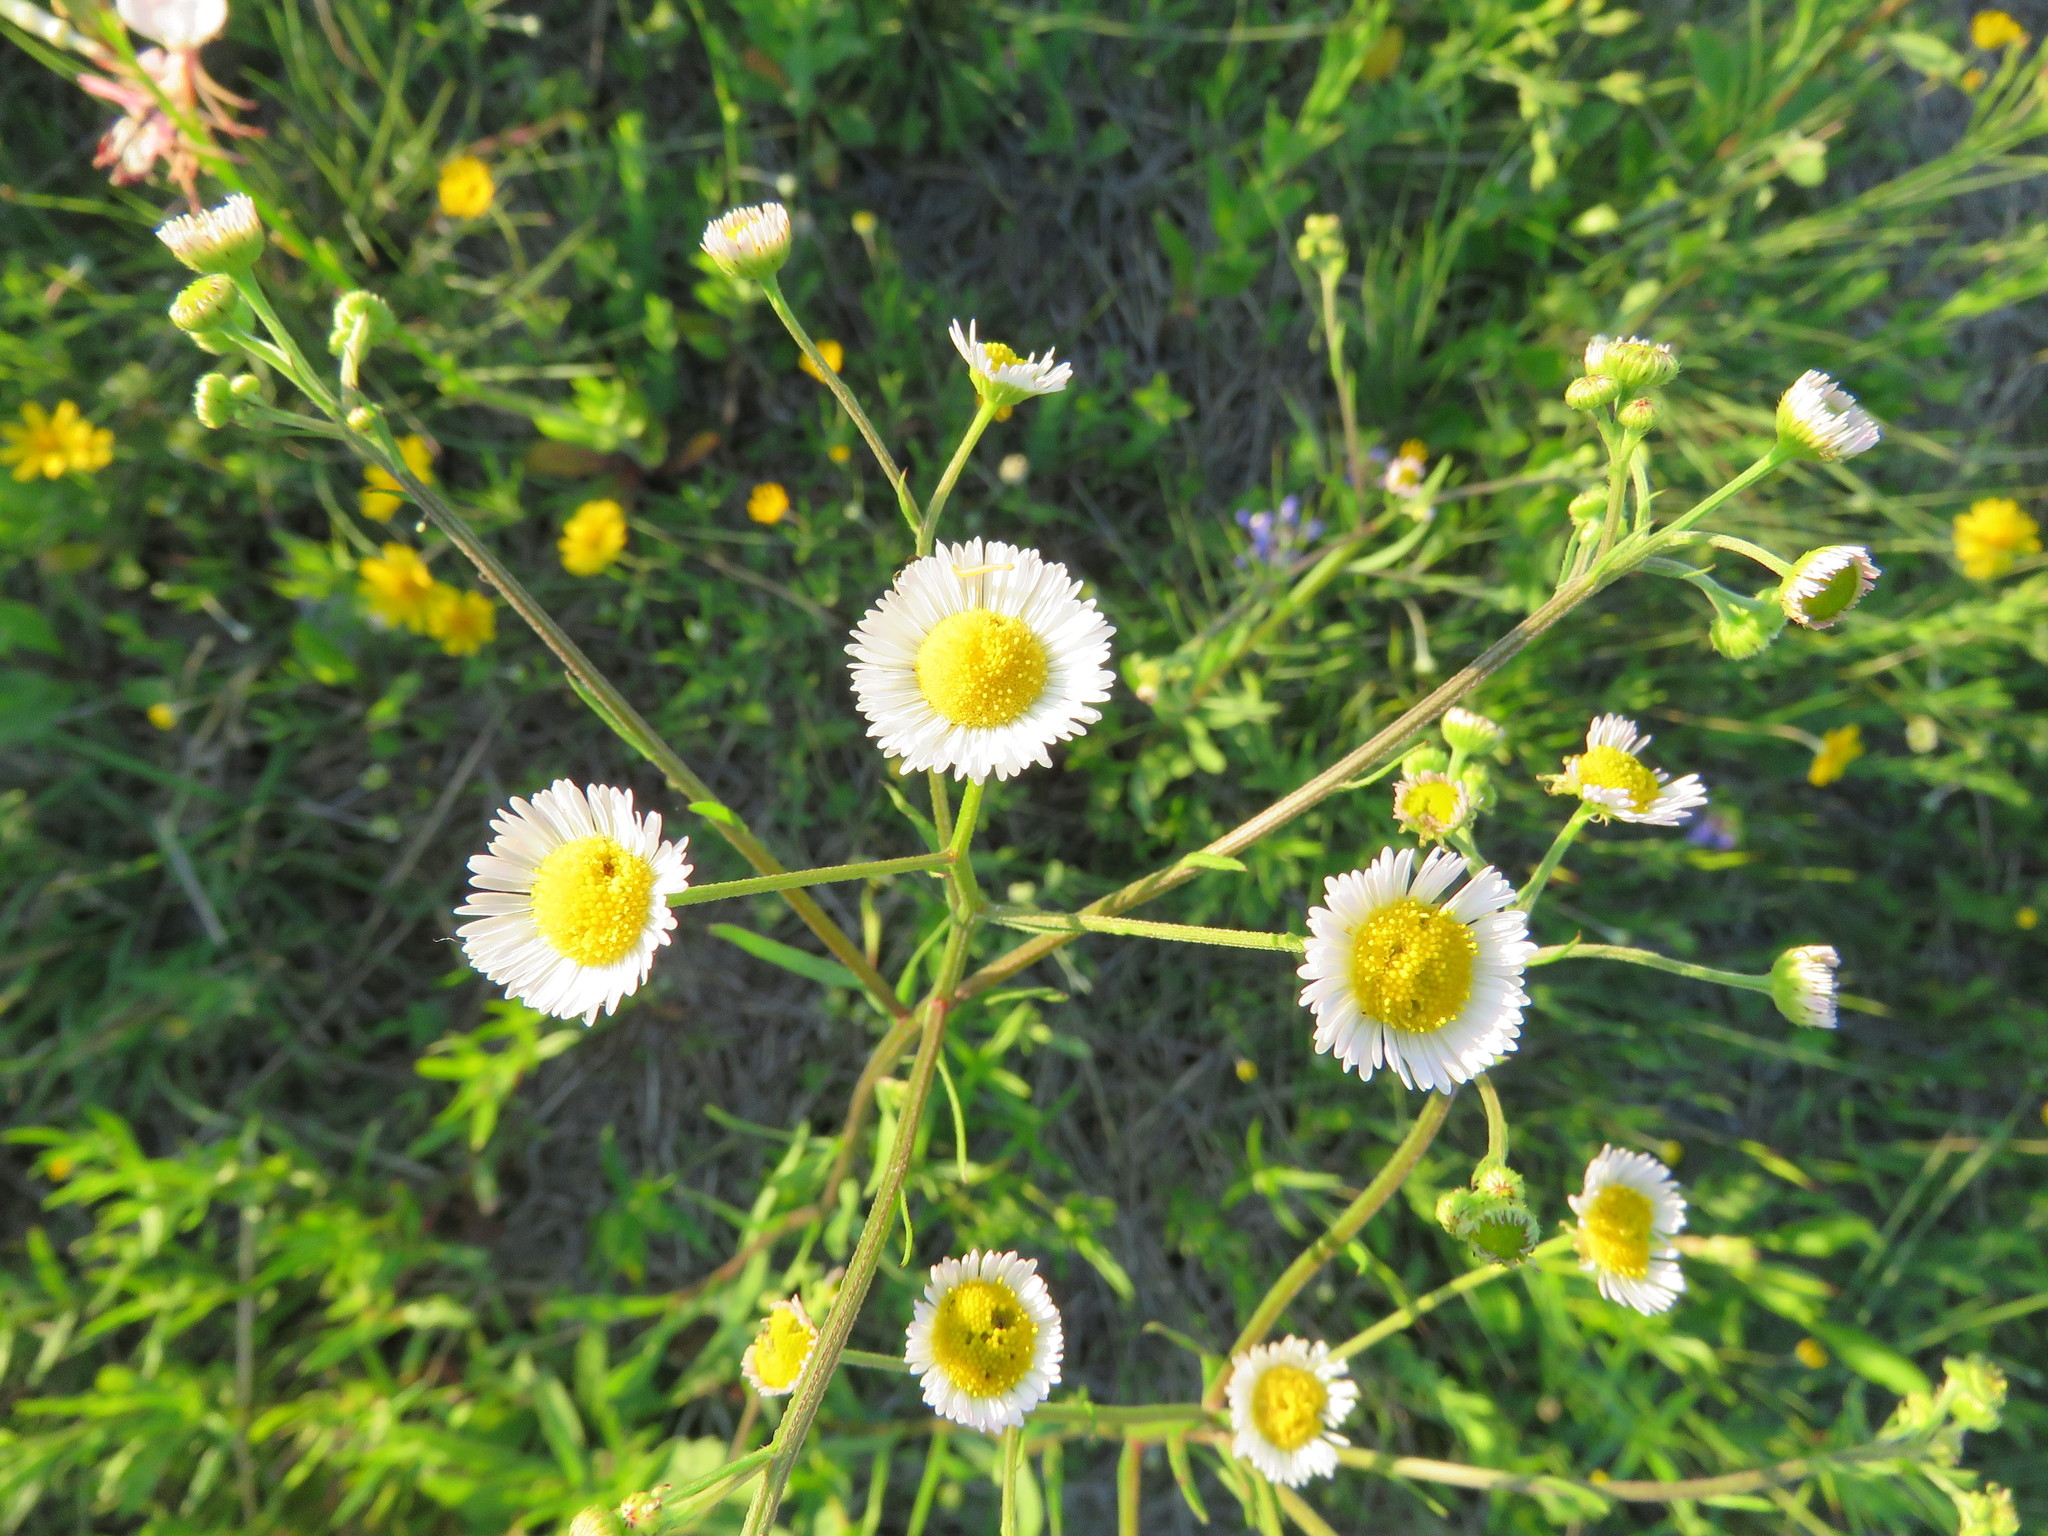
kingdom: Plantae
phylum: Tracheophyta
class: Magnoliopsida
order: Asterales
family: Asteraceae
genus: Erigeron
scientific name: Erigeron strigosus
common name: Common eastern fleabane
